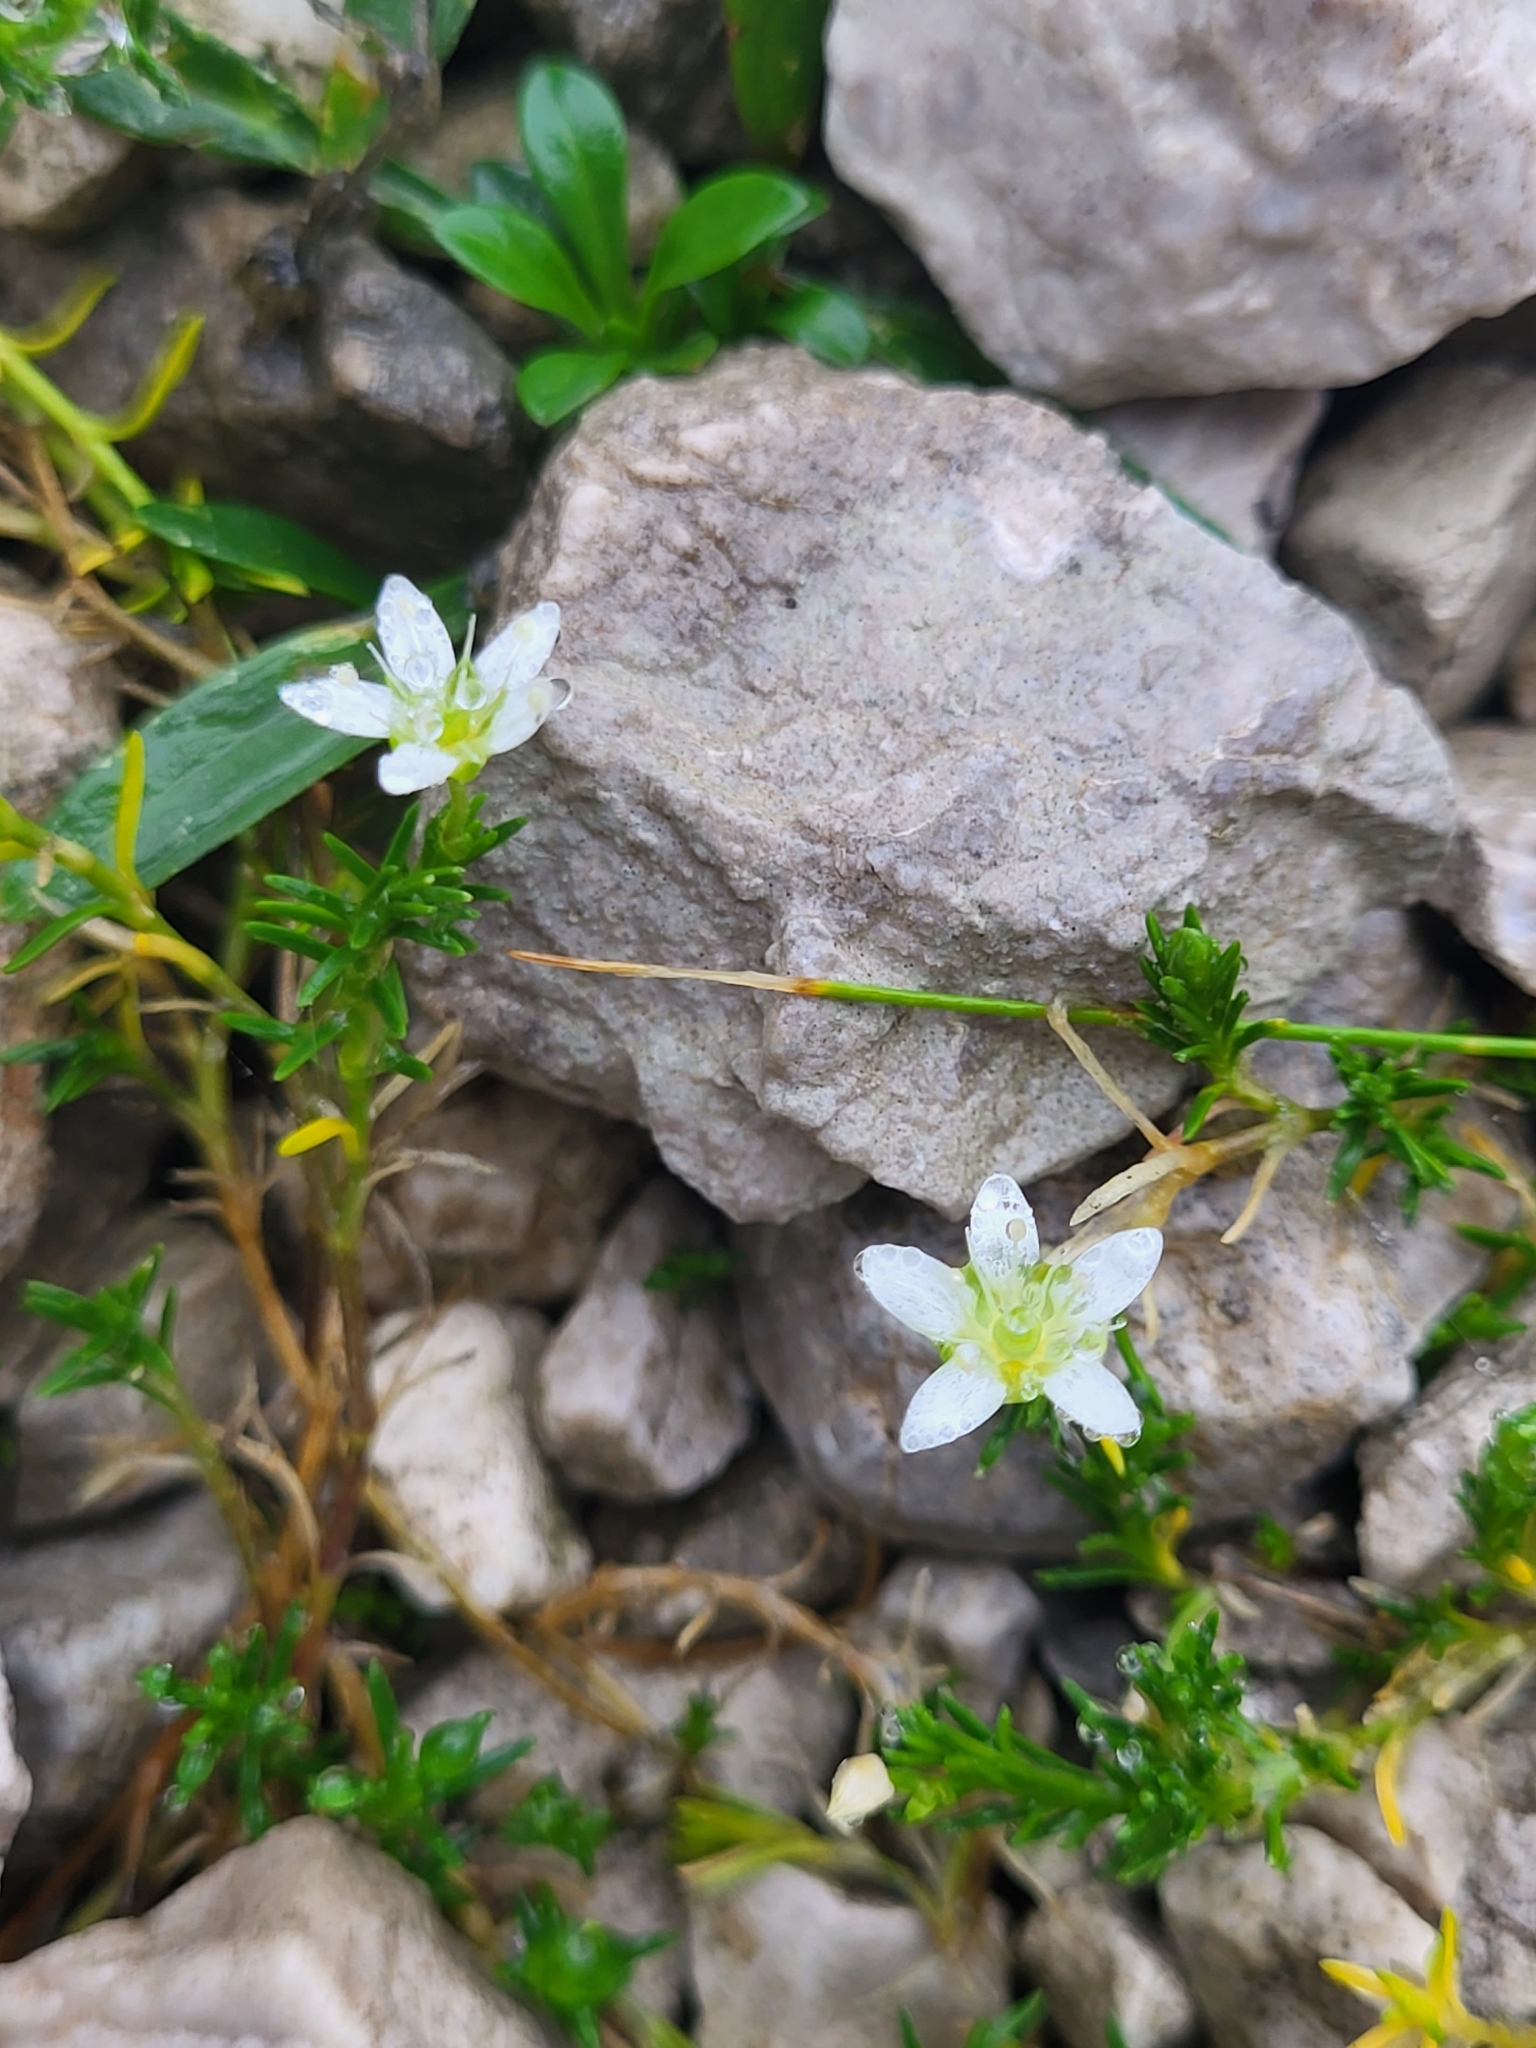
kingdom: Plantae
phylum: Tracheophyta
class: Magnoliopsida
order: Caryophyllales
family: Caryophyllaceae
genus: Moehringia
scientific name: Moehringia ciliata
